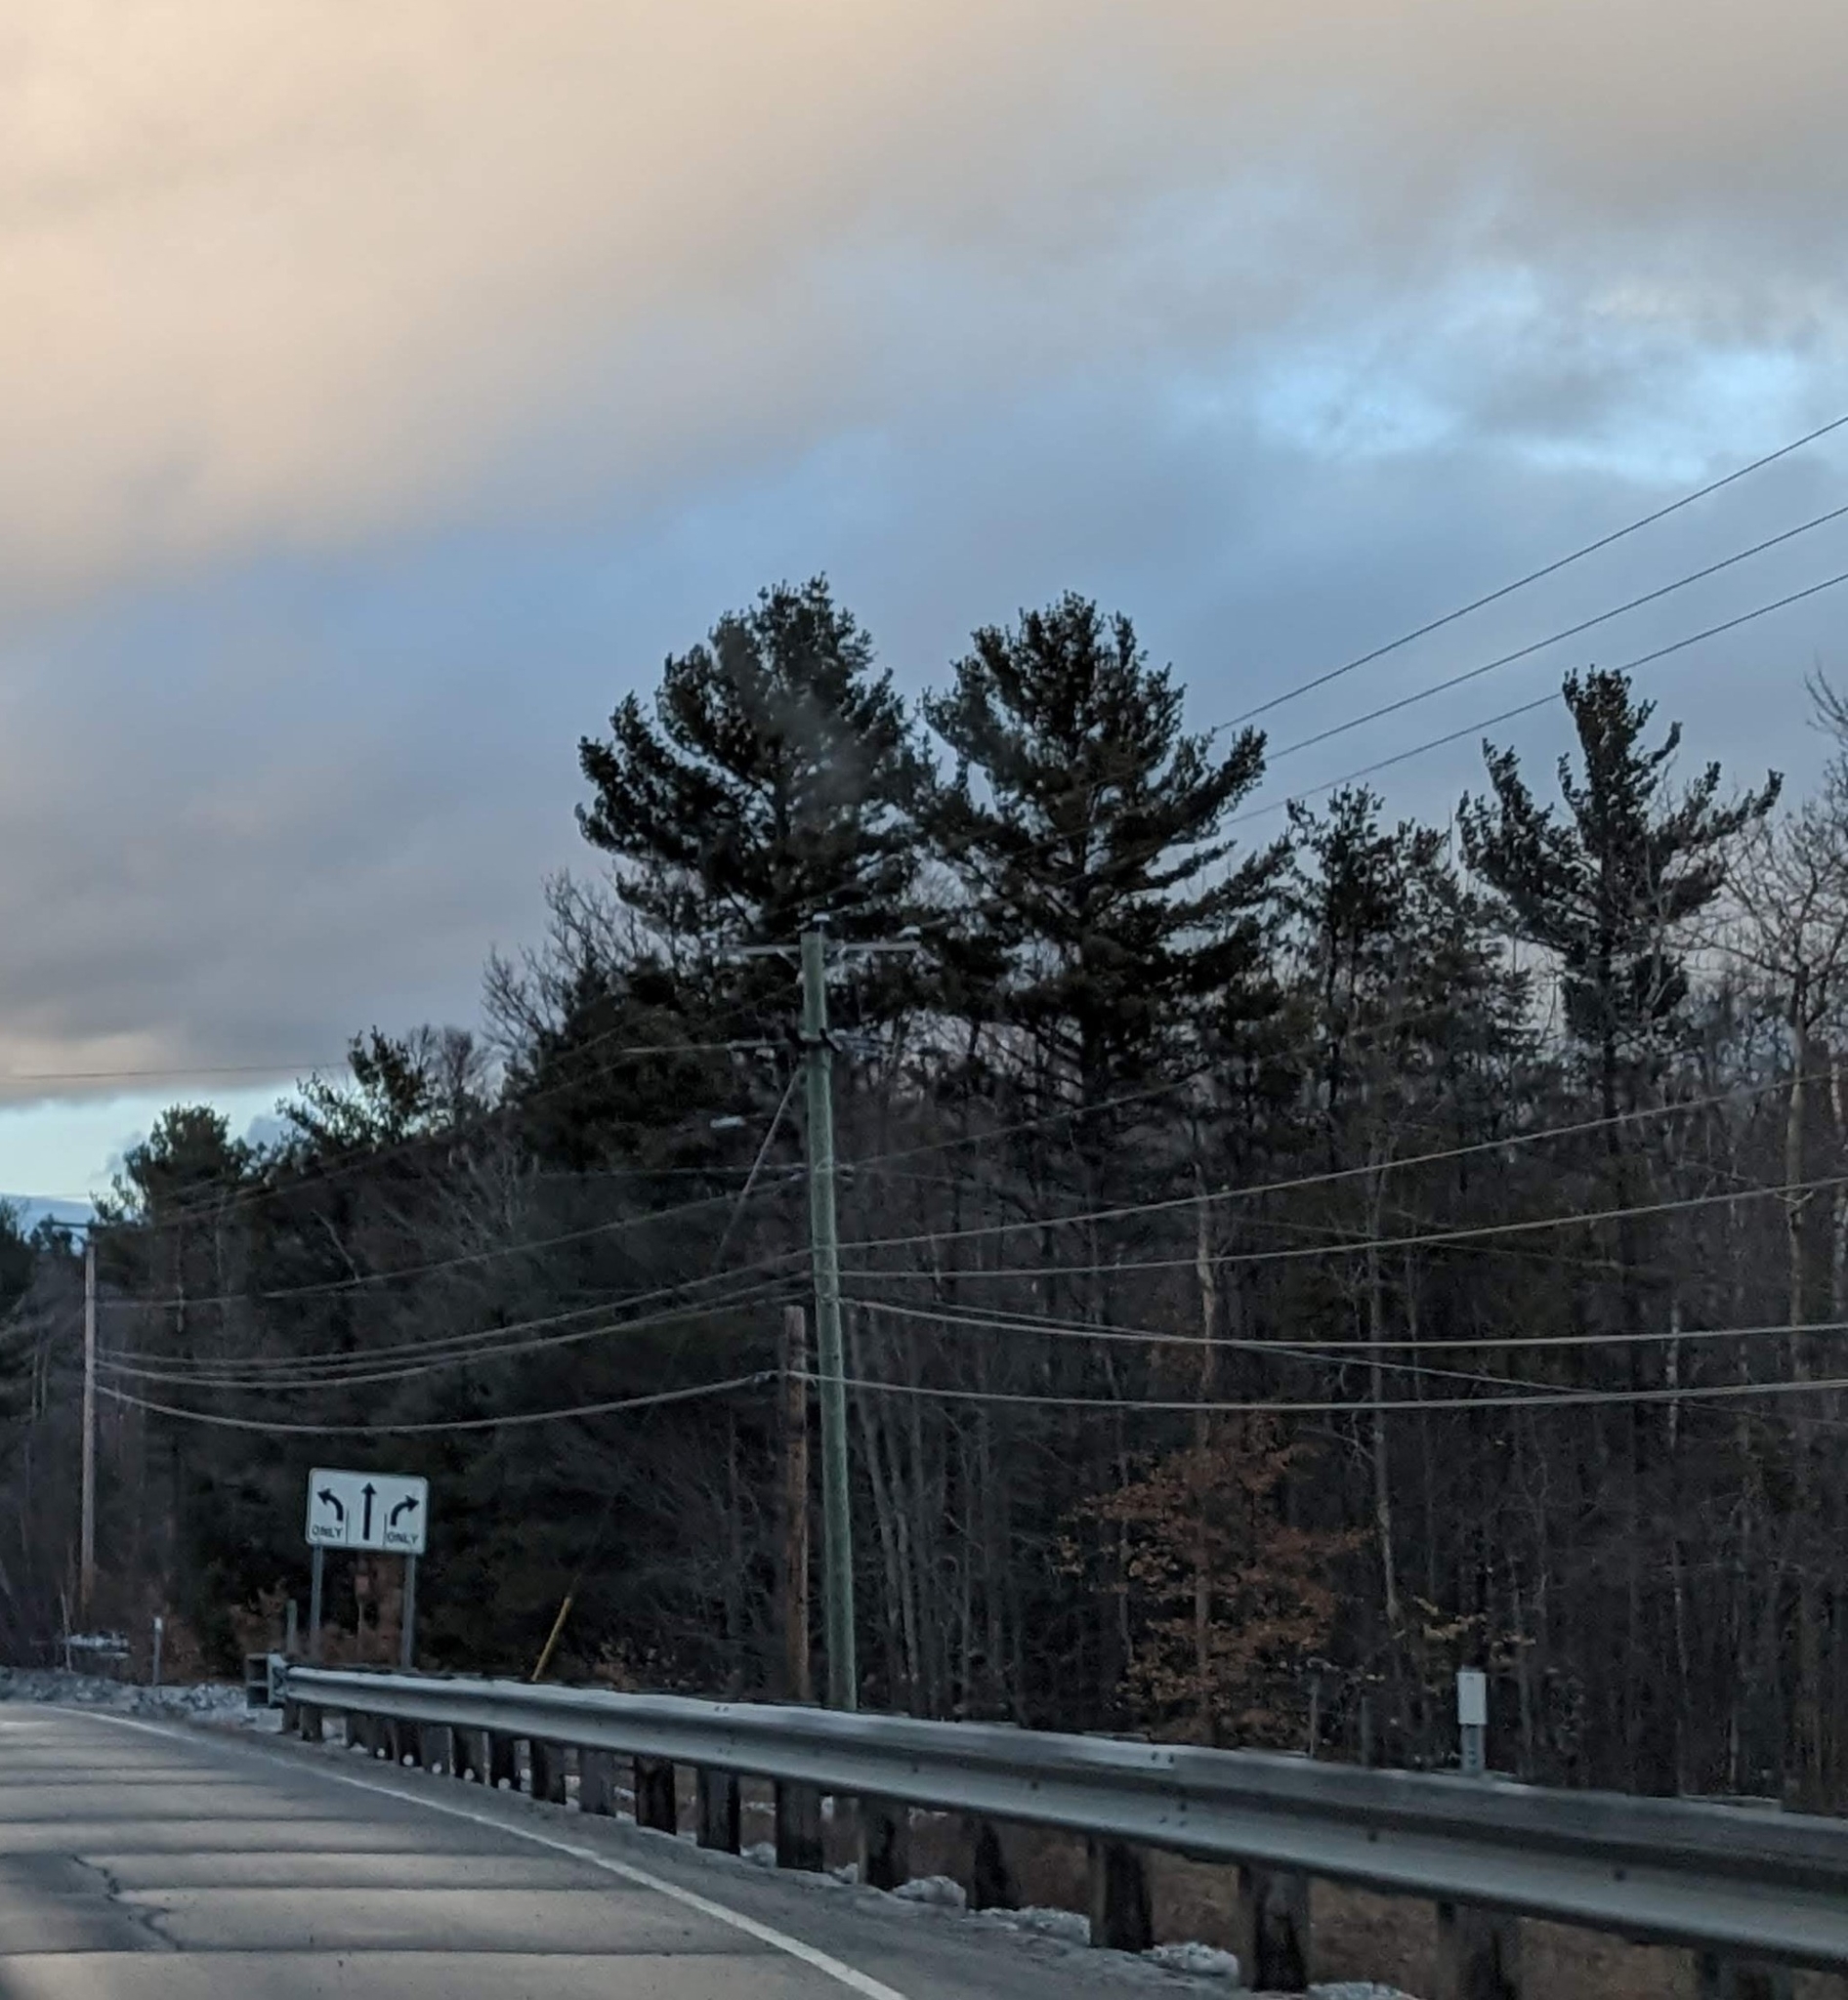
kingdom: Plantae
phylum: Tracheophyta
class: Pinopsida
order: Pinales
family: Pinaceae
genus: Pinus
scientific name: Pinus strobus
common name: Weymouth pine
